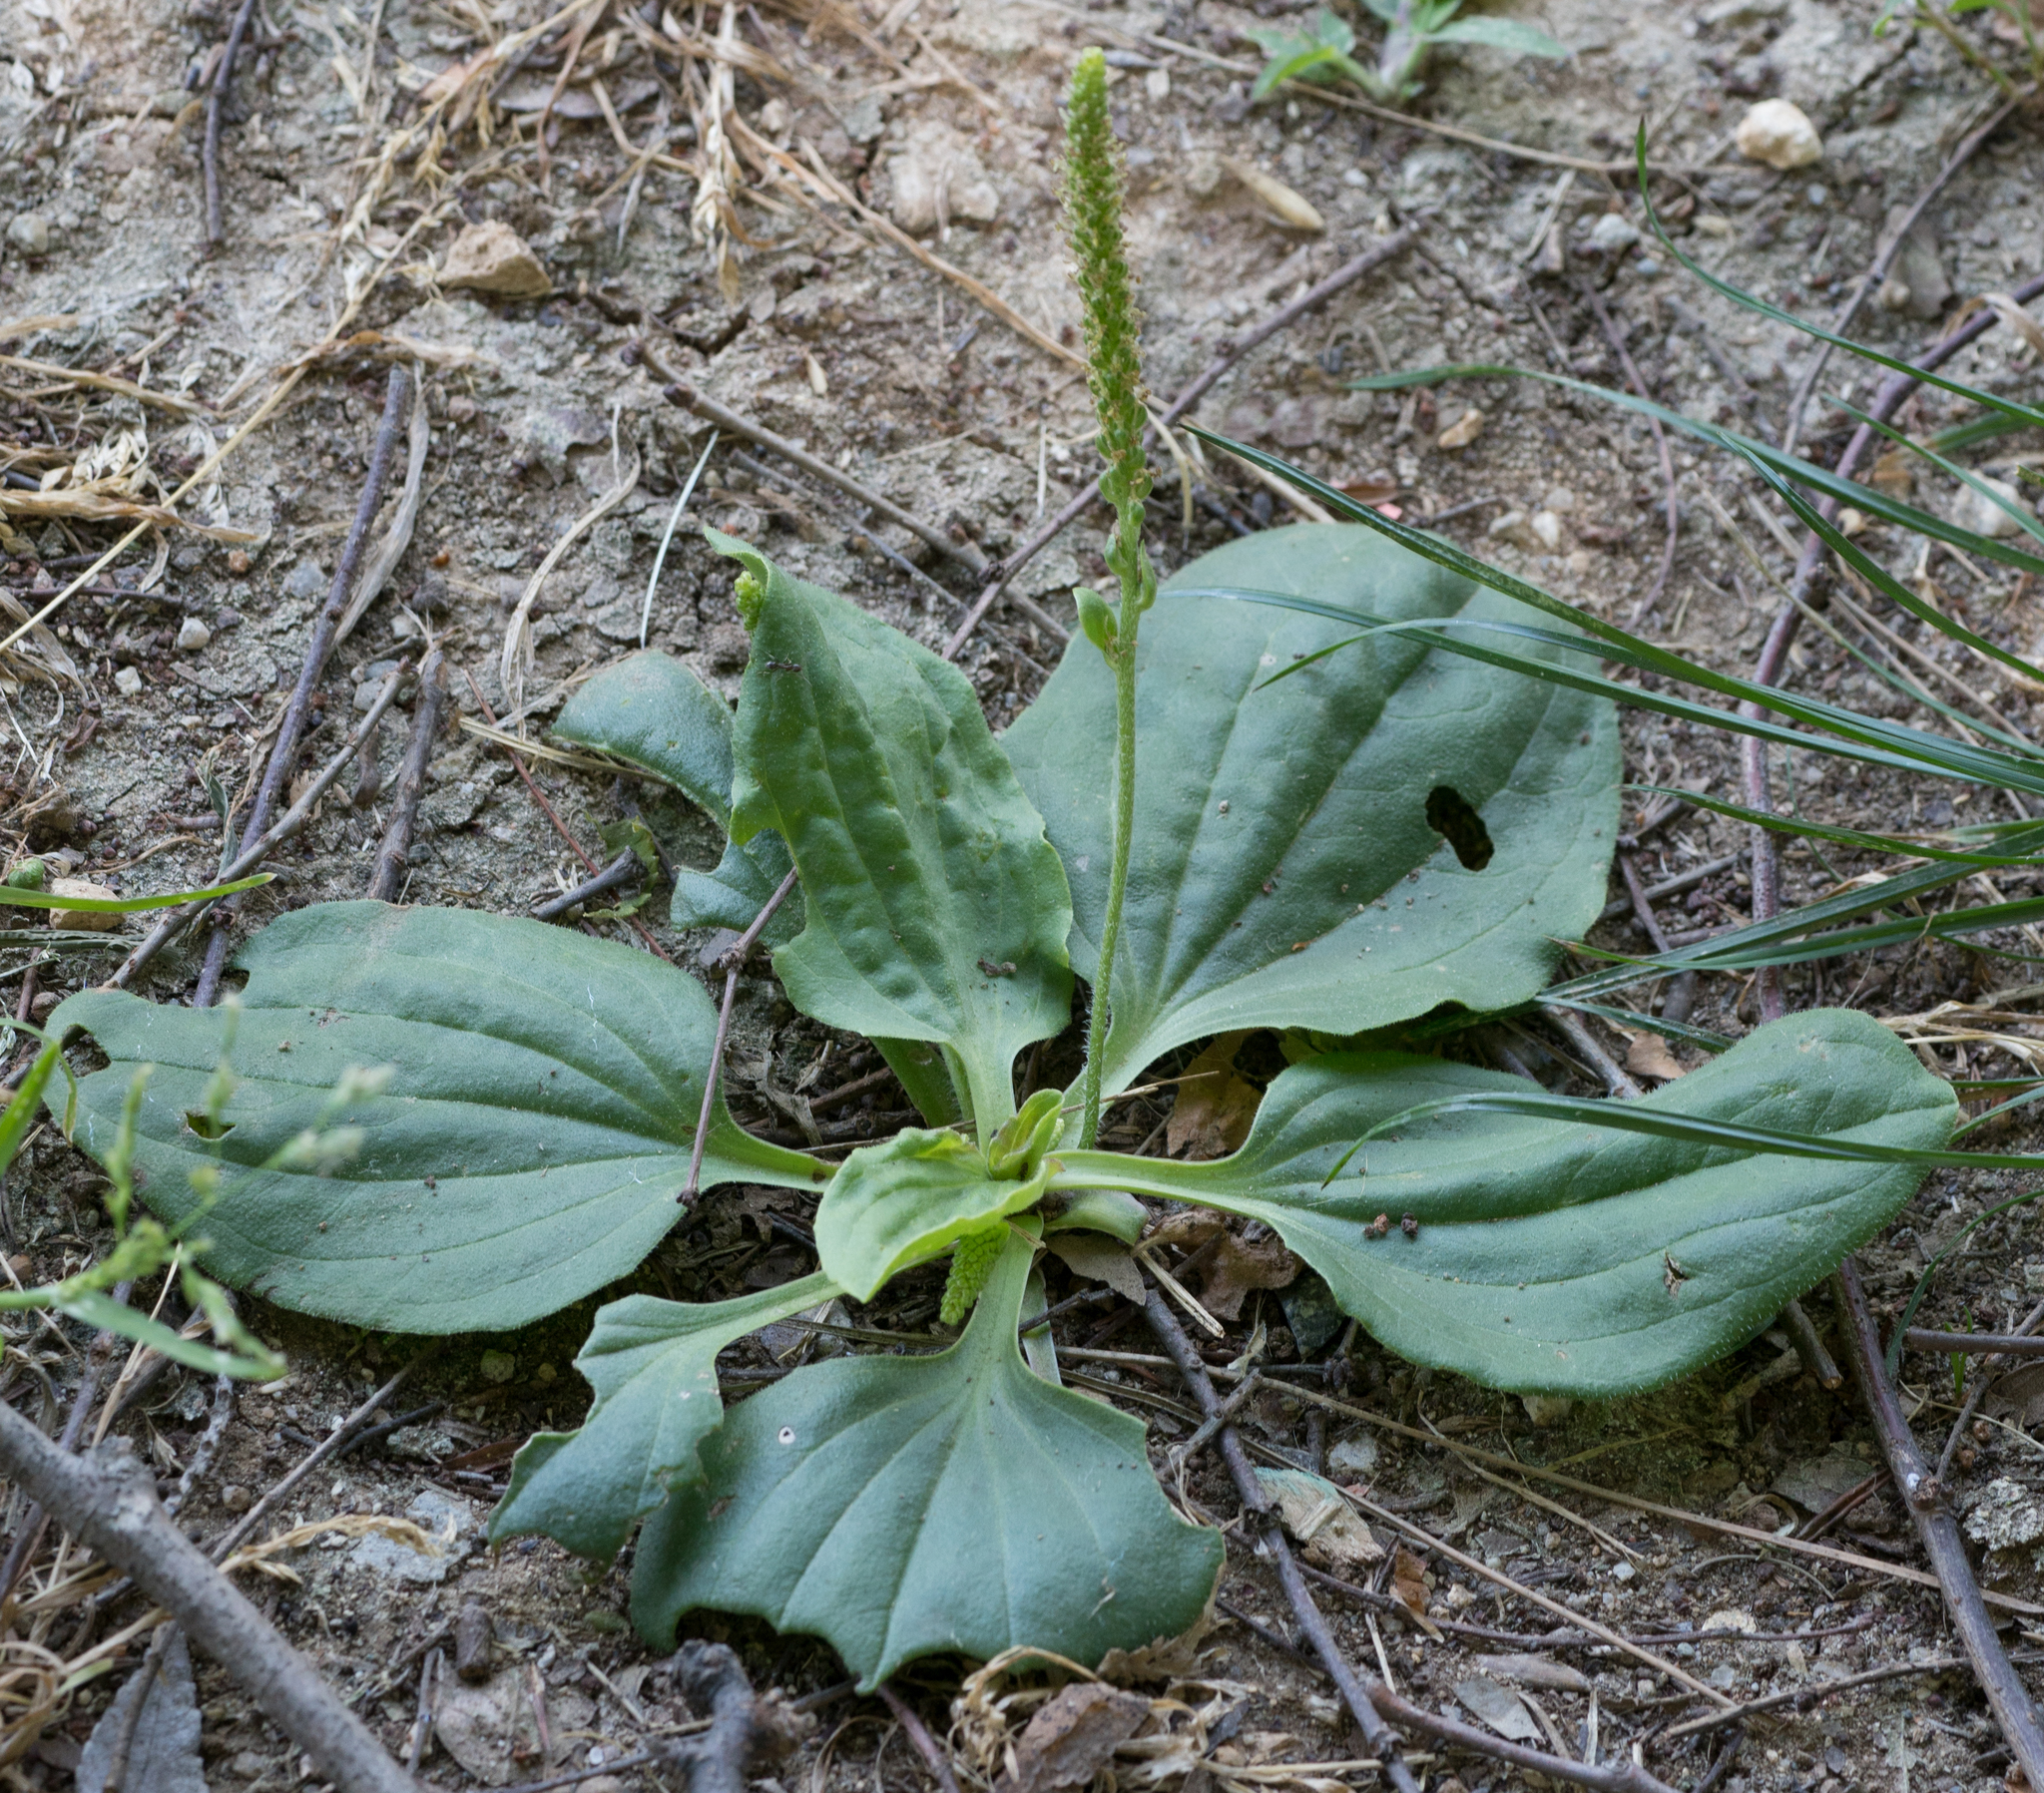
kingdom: Plantae
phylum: Tracheophyta
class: Magnoliopsida
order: Lamiales
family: Plantaginaceae
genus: Plantago
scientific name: Plantago major
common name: Common plantain
